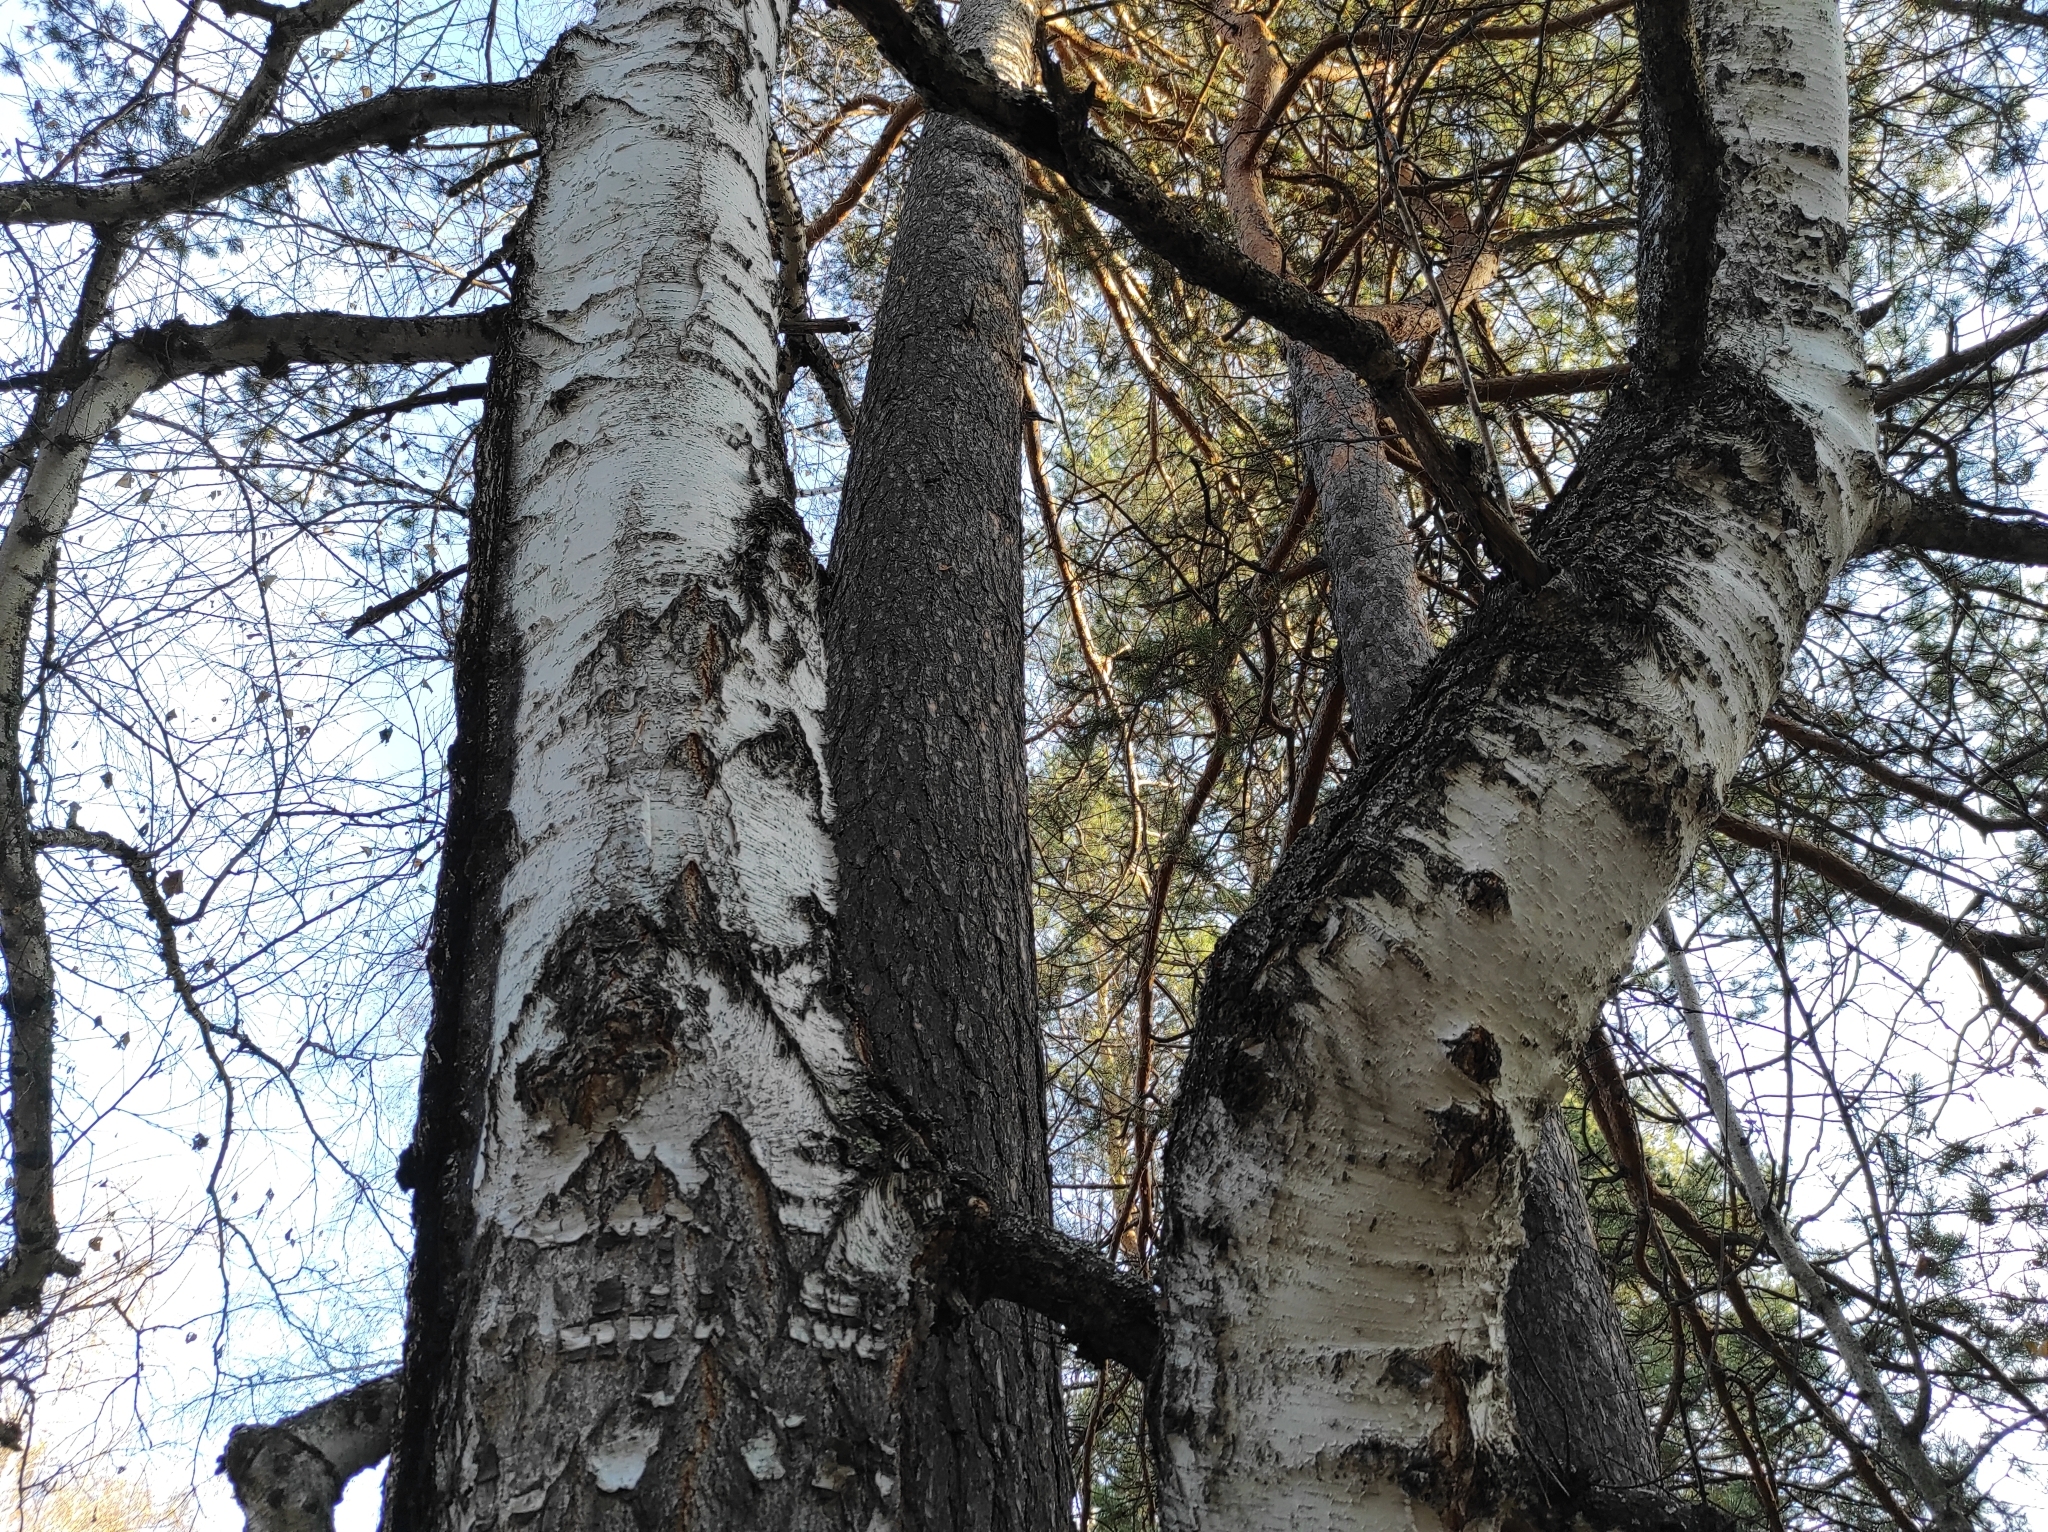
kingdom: Plantae
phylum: Tracheophyta
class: Pinopsida
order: Pinales
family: Pinaceae
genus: Pinus
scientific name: Pinus sylvestris
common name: Scots pine
